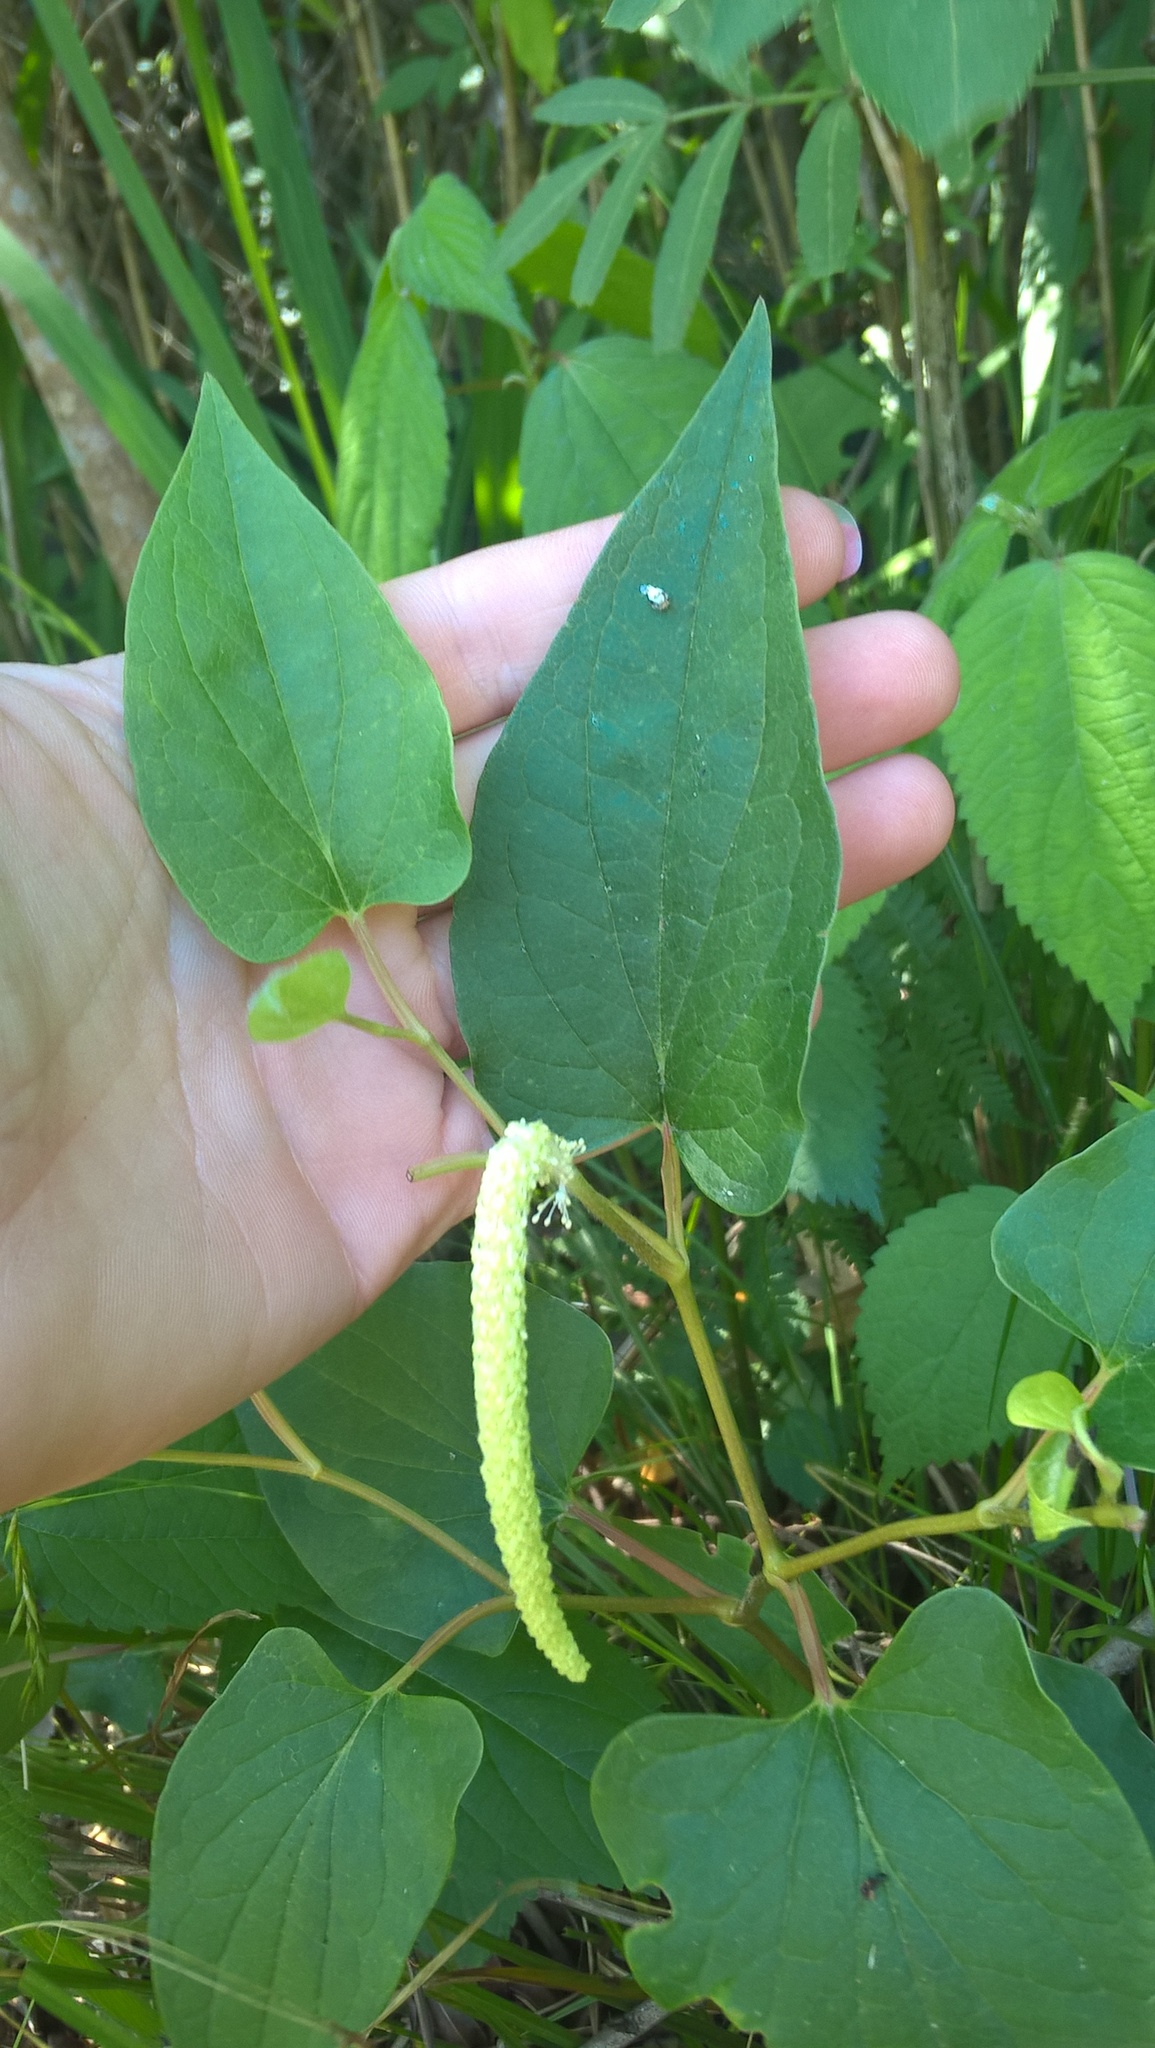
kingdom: Plantae
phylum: Tracheophyta
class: Magnoliopsida
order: Piperales
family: Saururaceae
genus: Saururus
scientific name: Saururus cernuus
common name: Lizard's-tail
